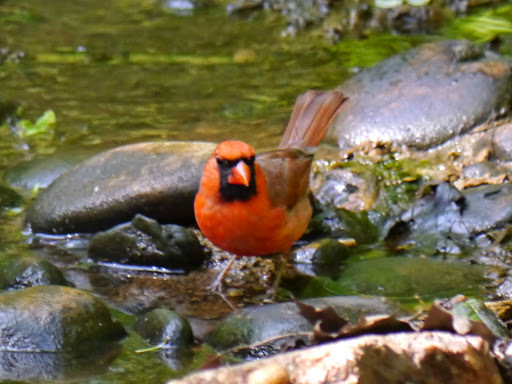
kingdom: Animalia
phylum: Chordata
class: Aves
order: Passeriformes
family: Cardinalidae
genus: Cardinalis
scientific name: Cardinalis cardinalis
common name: Northern cardinal
